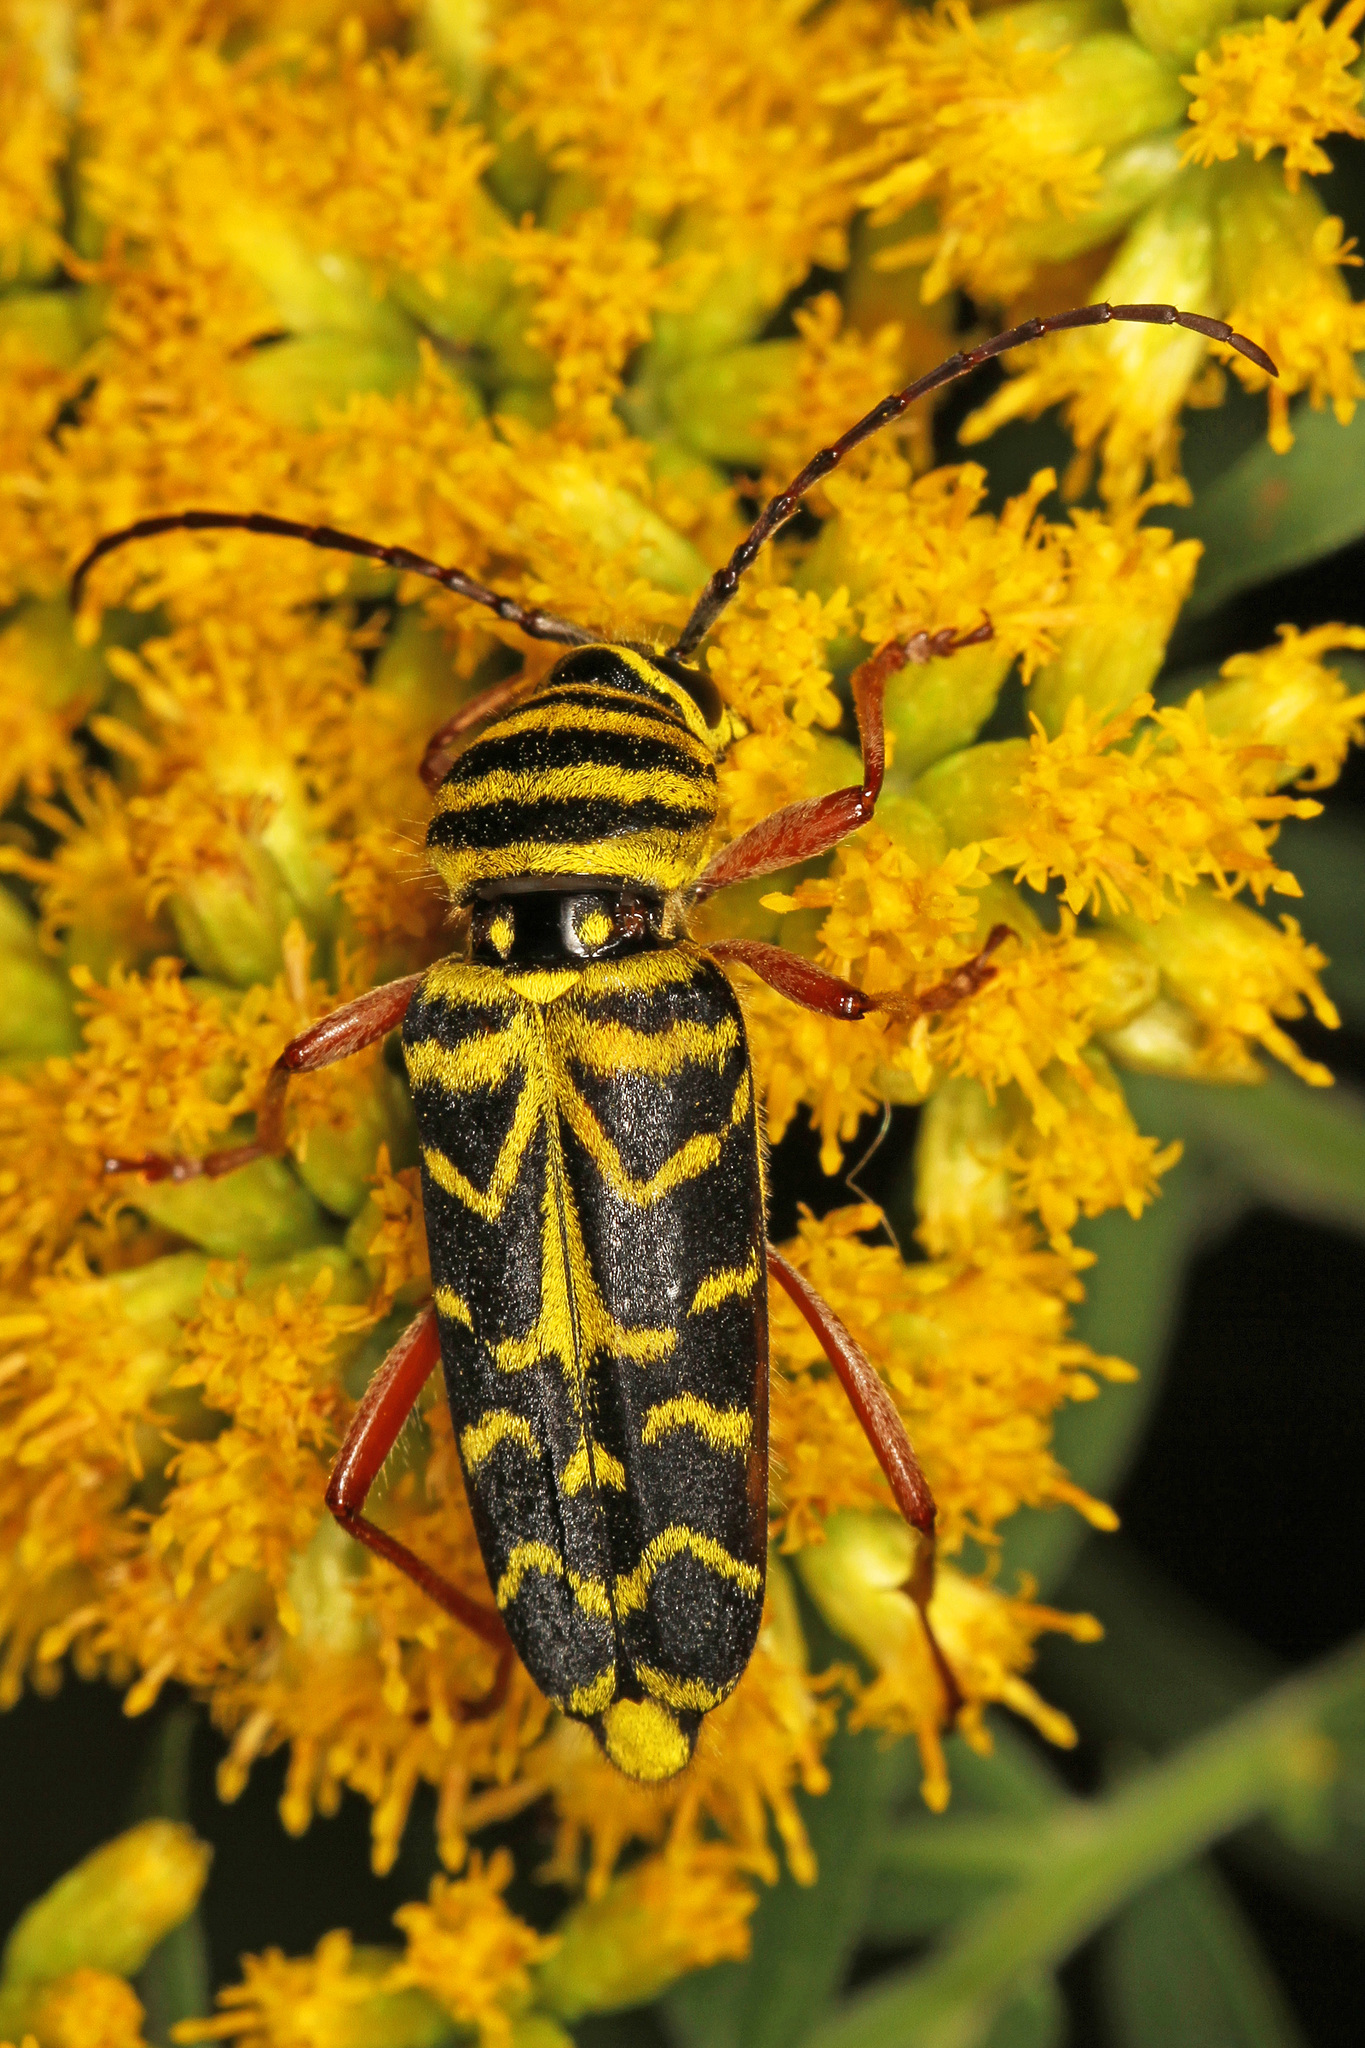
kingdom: Animalia
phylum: Arthropoda
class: Insecta
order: Coleoptera
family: Cerambycidae
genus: Megacyllene
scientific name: Megacyllene robiniae
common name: Locust borer
